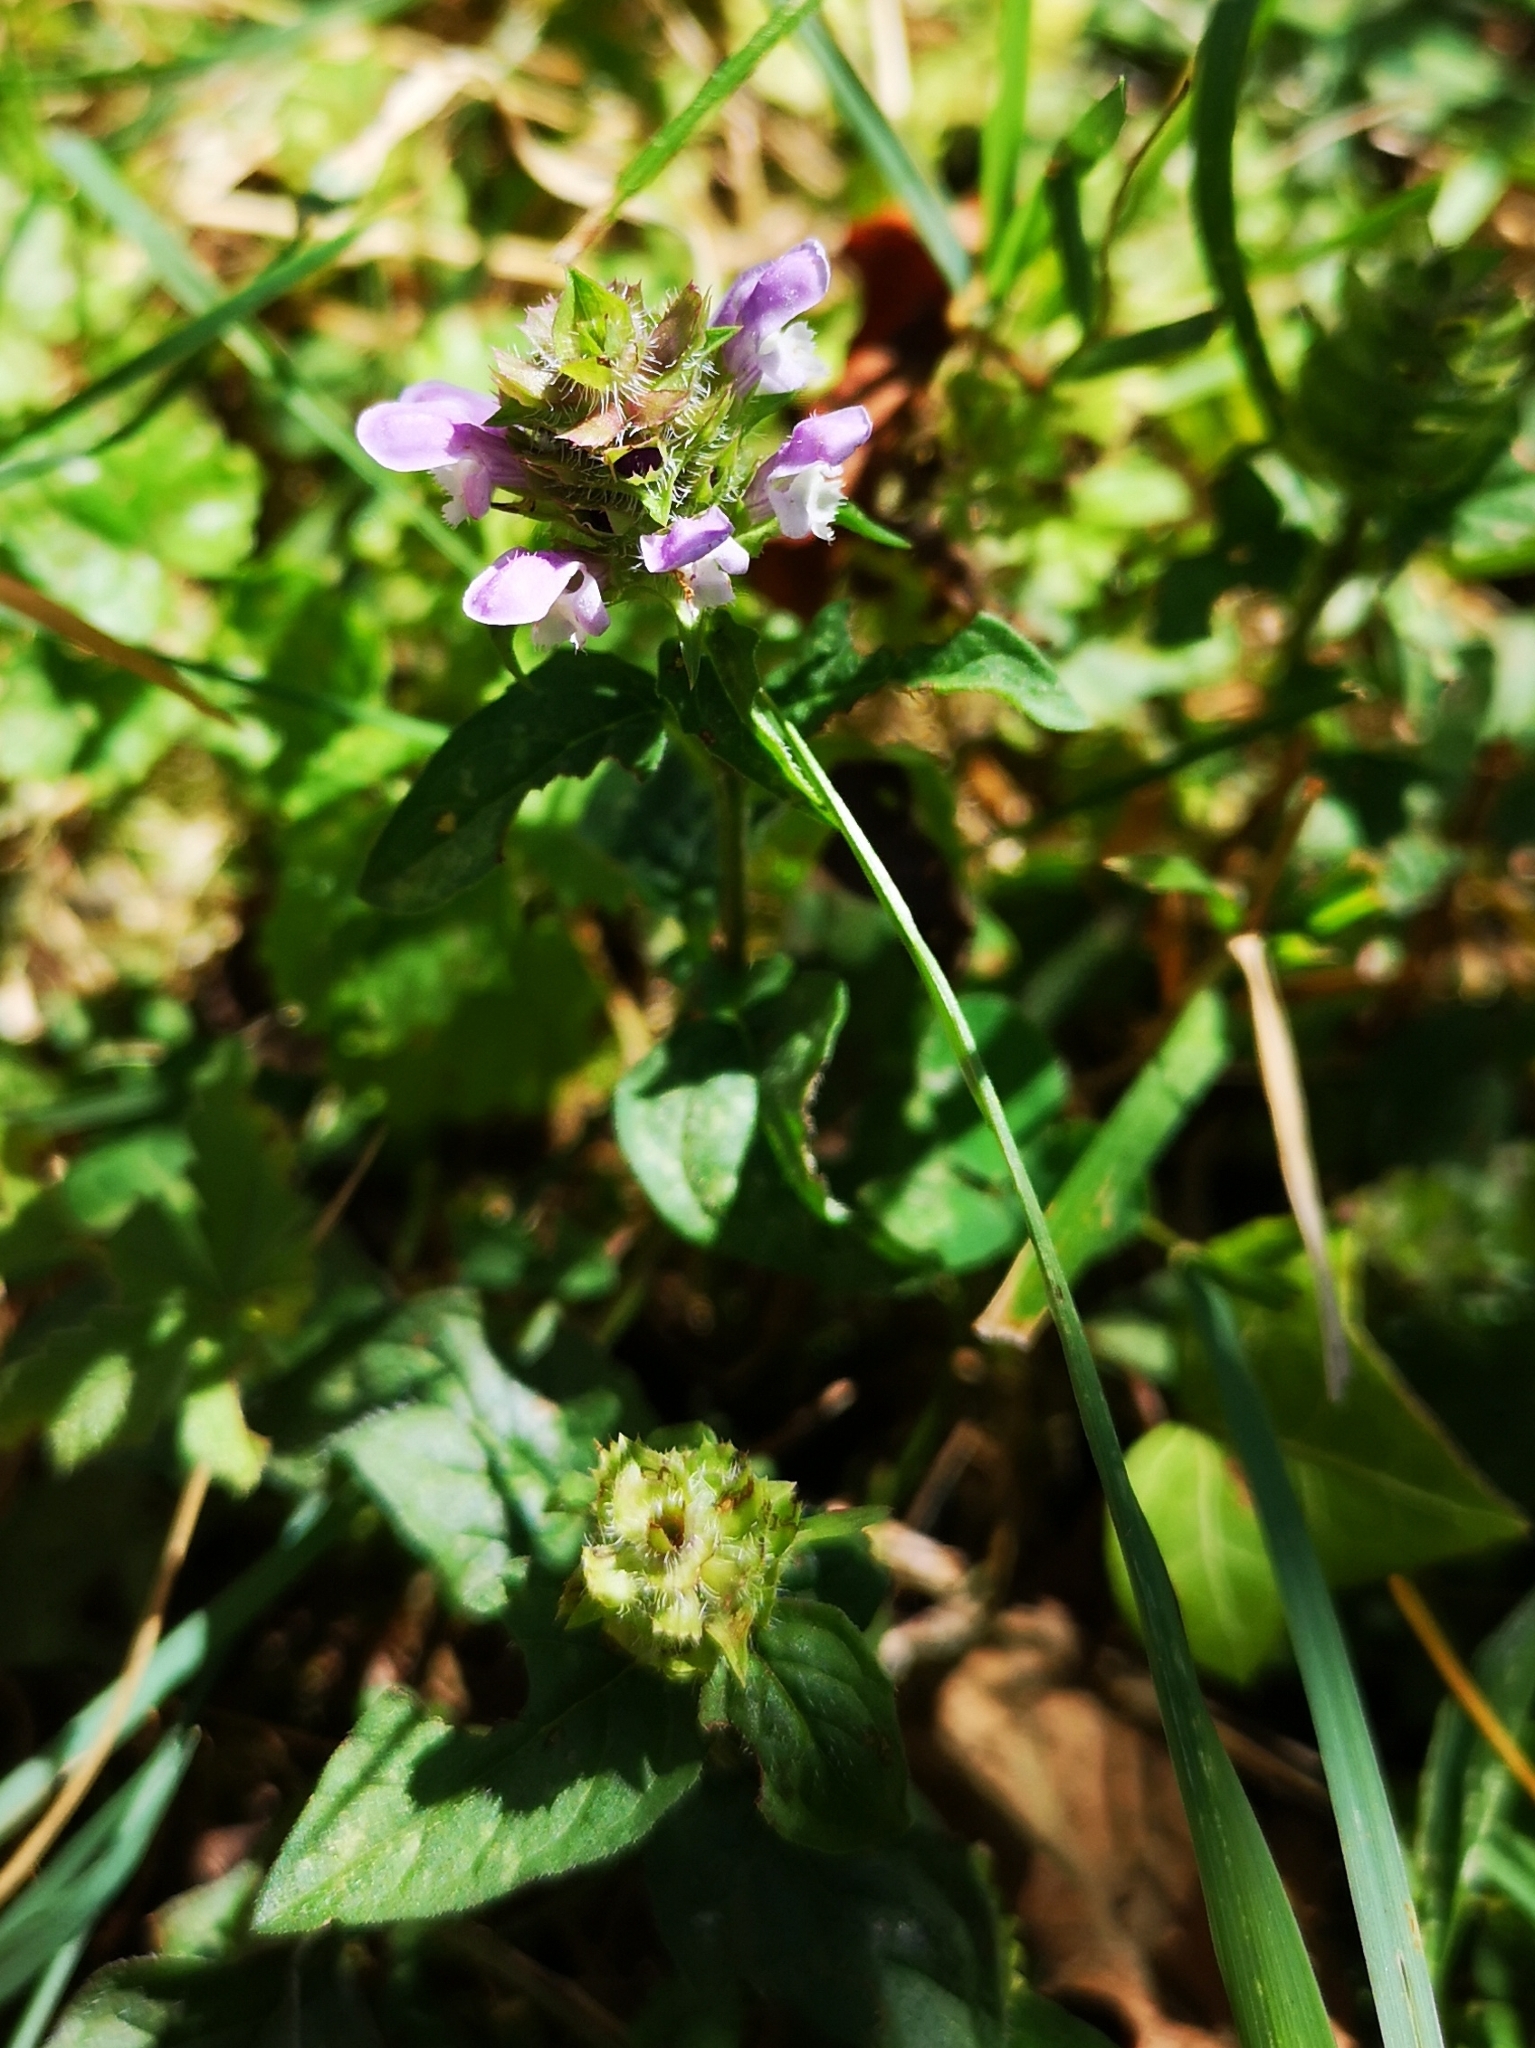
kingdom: Plantae
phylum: Tracheophyta
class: Magnoliopsida
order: Lamiales
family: Lamiaceae
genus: Prunella
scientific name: Prunella vulgaris
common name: Heal-all
